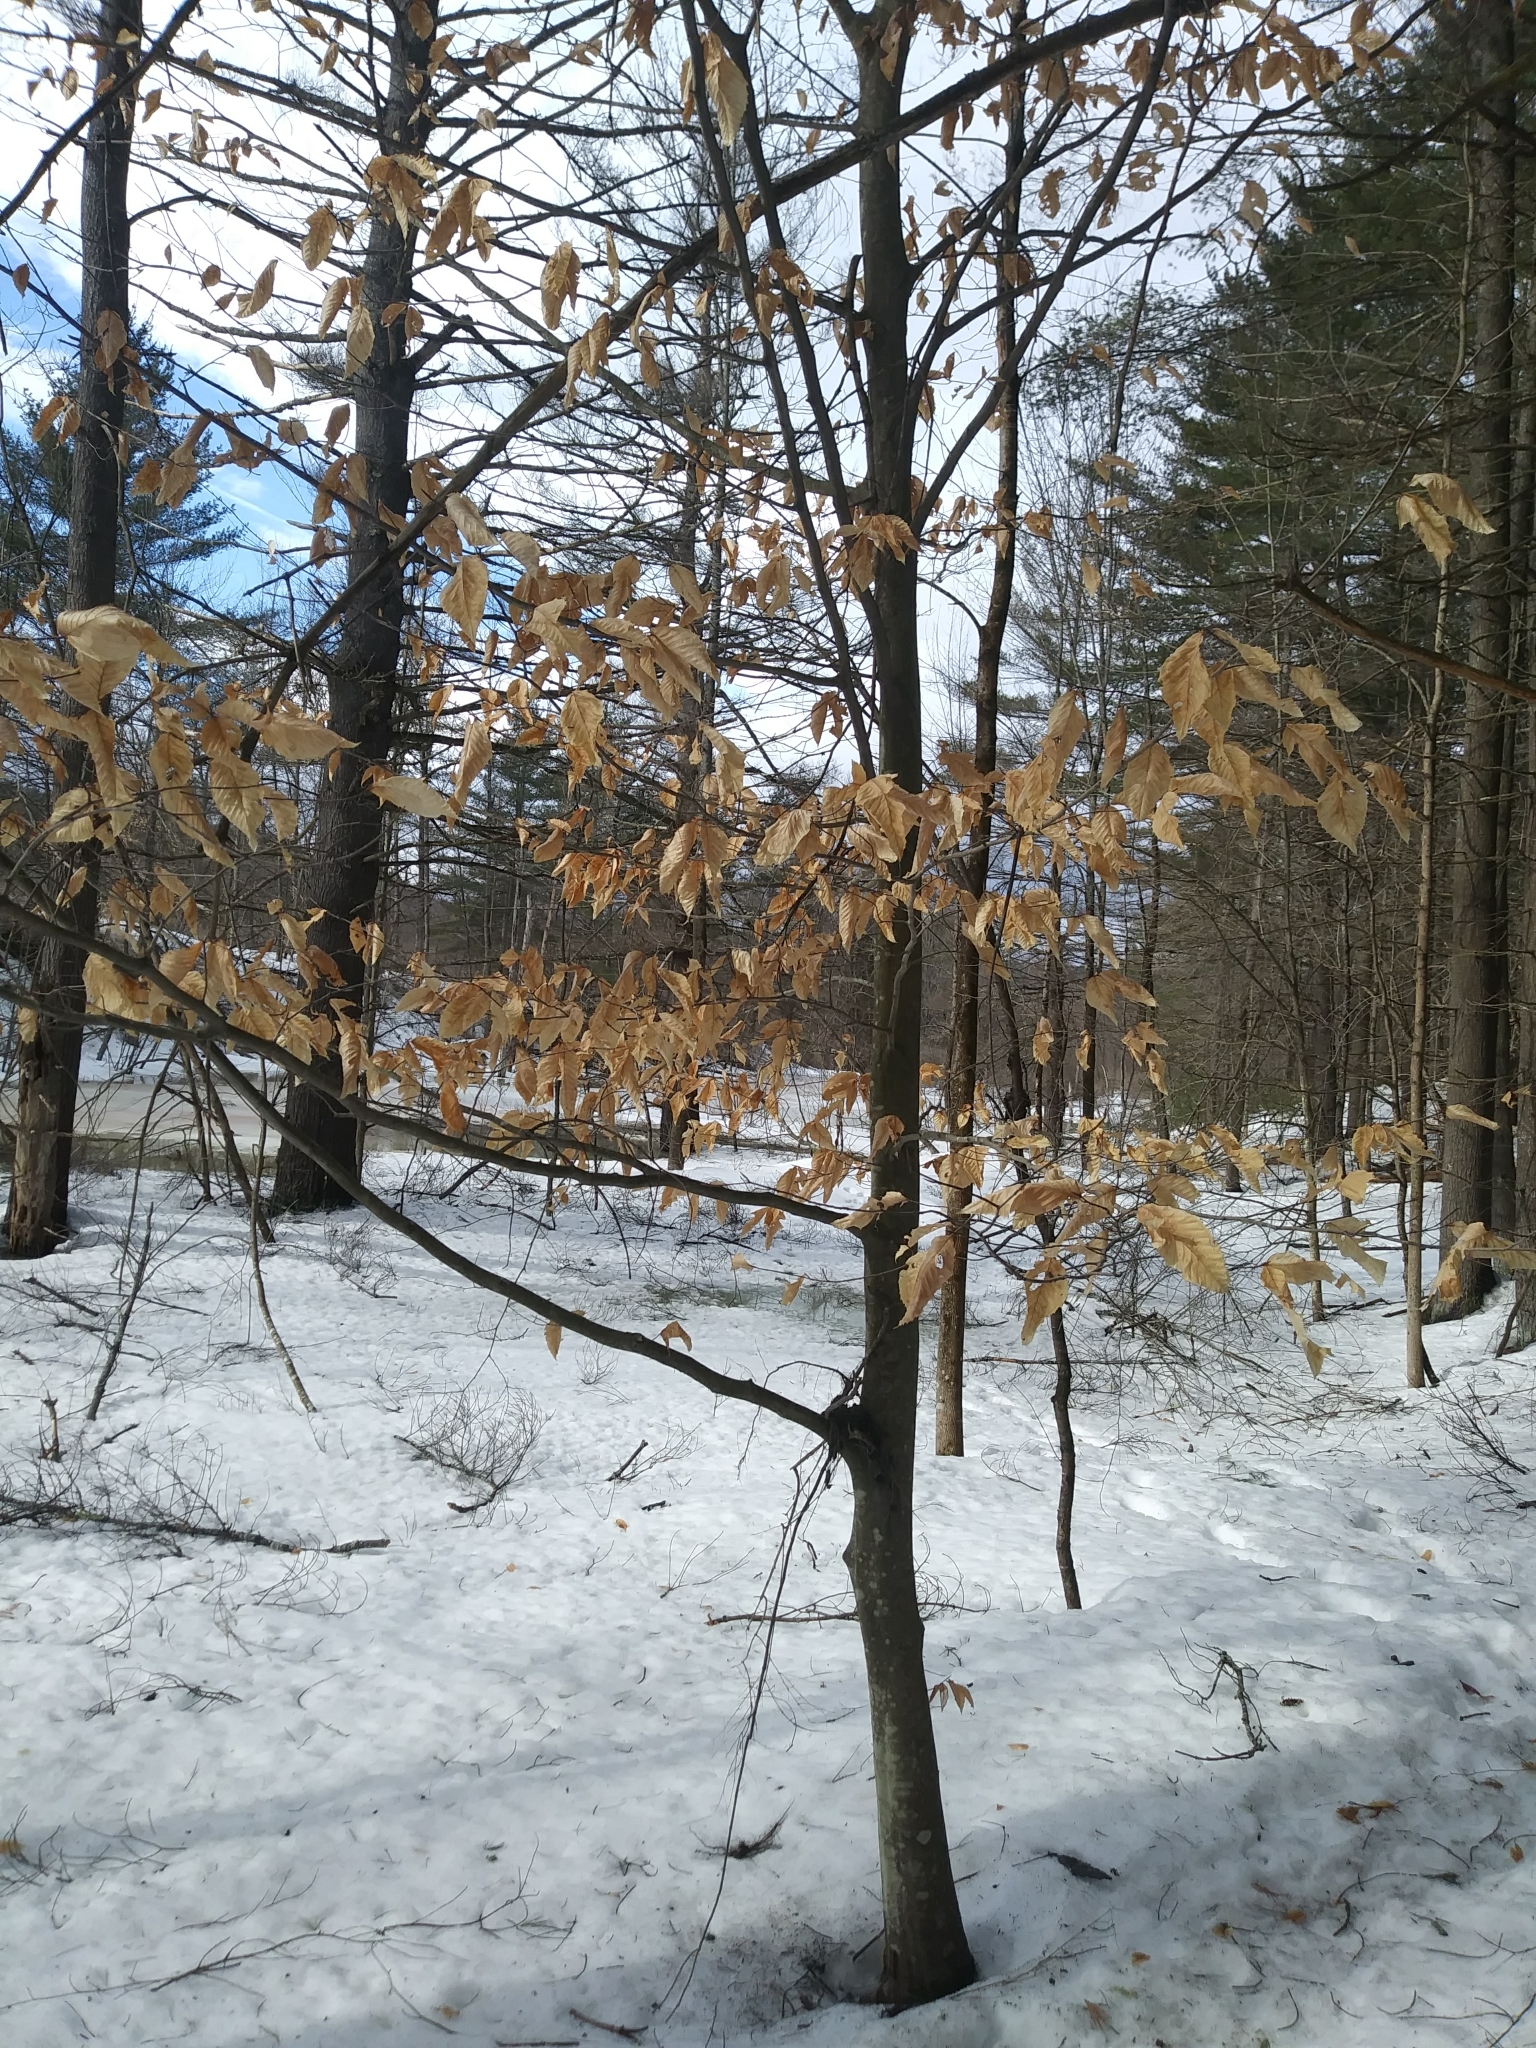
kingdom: Plantae
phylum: Tracheophyta
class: Magnoliopsida
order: Fagales
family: Fagaceae
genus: Fagus
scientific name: Fagus grandifolia
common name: American beech
